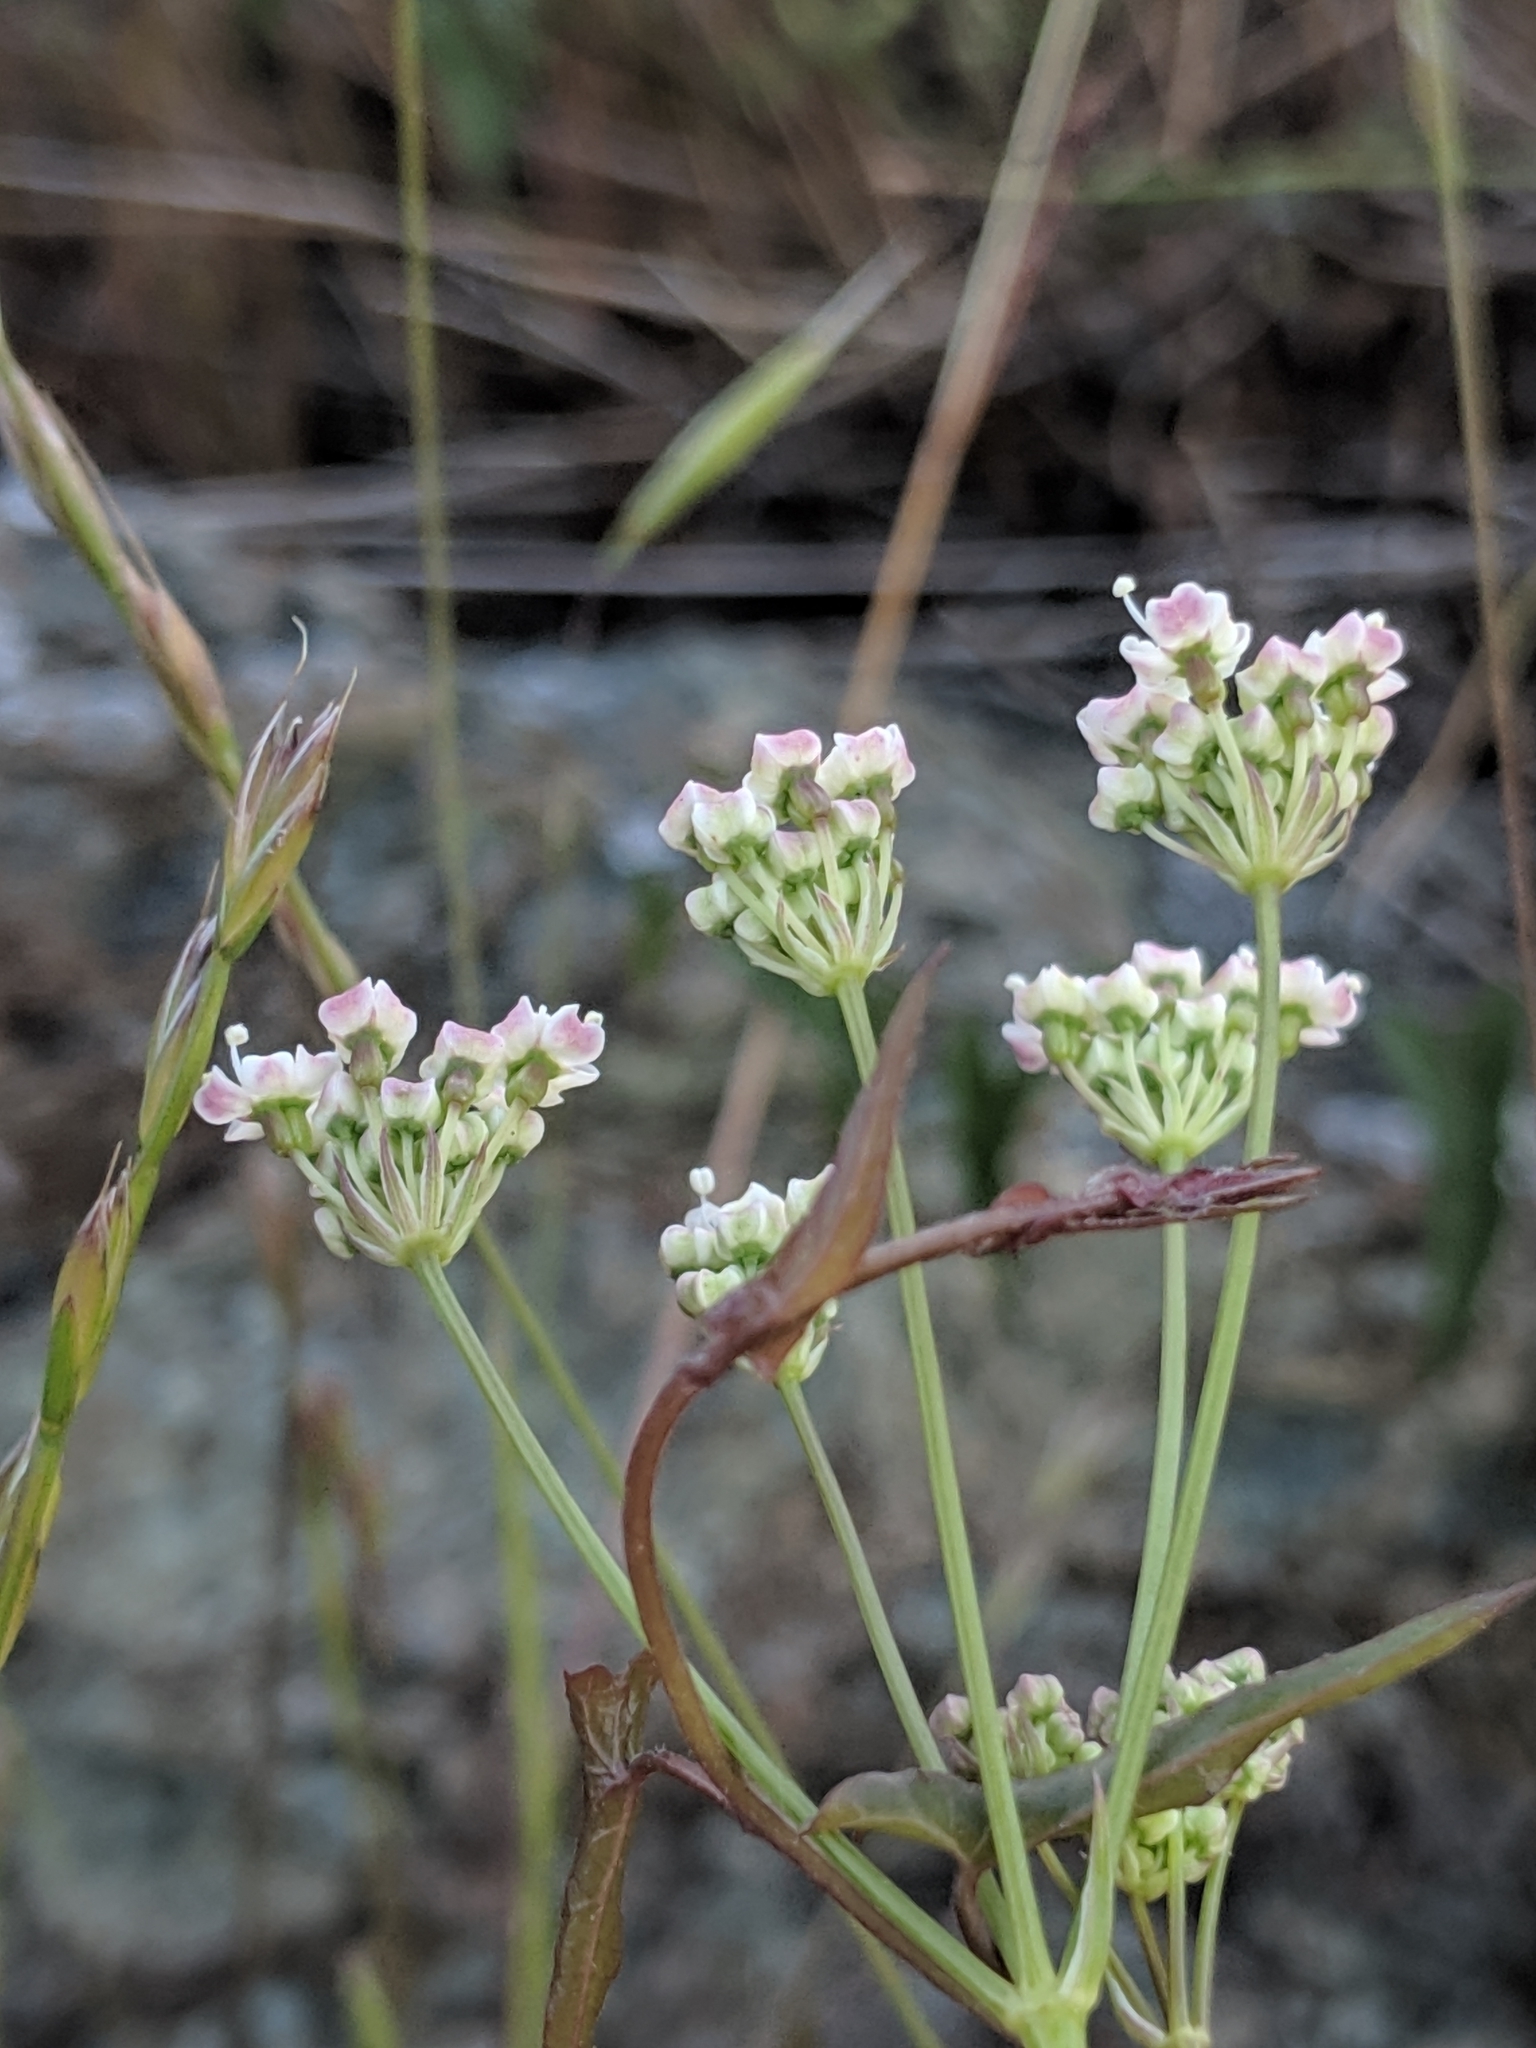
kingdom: Plantae
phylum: Tracheophyta
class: Magnoliopsida
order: Apiales
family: Apiaceae
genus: Perideridia
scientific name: Perideridia pringlei
